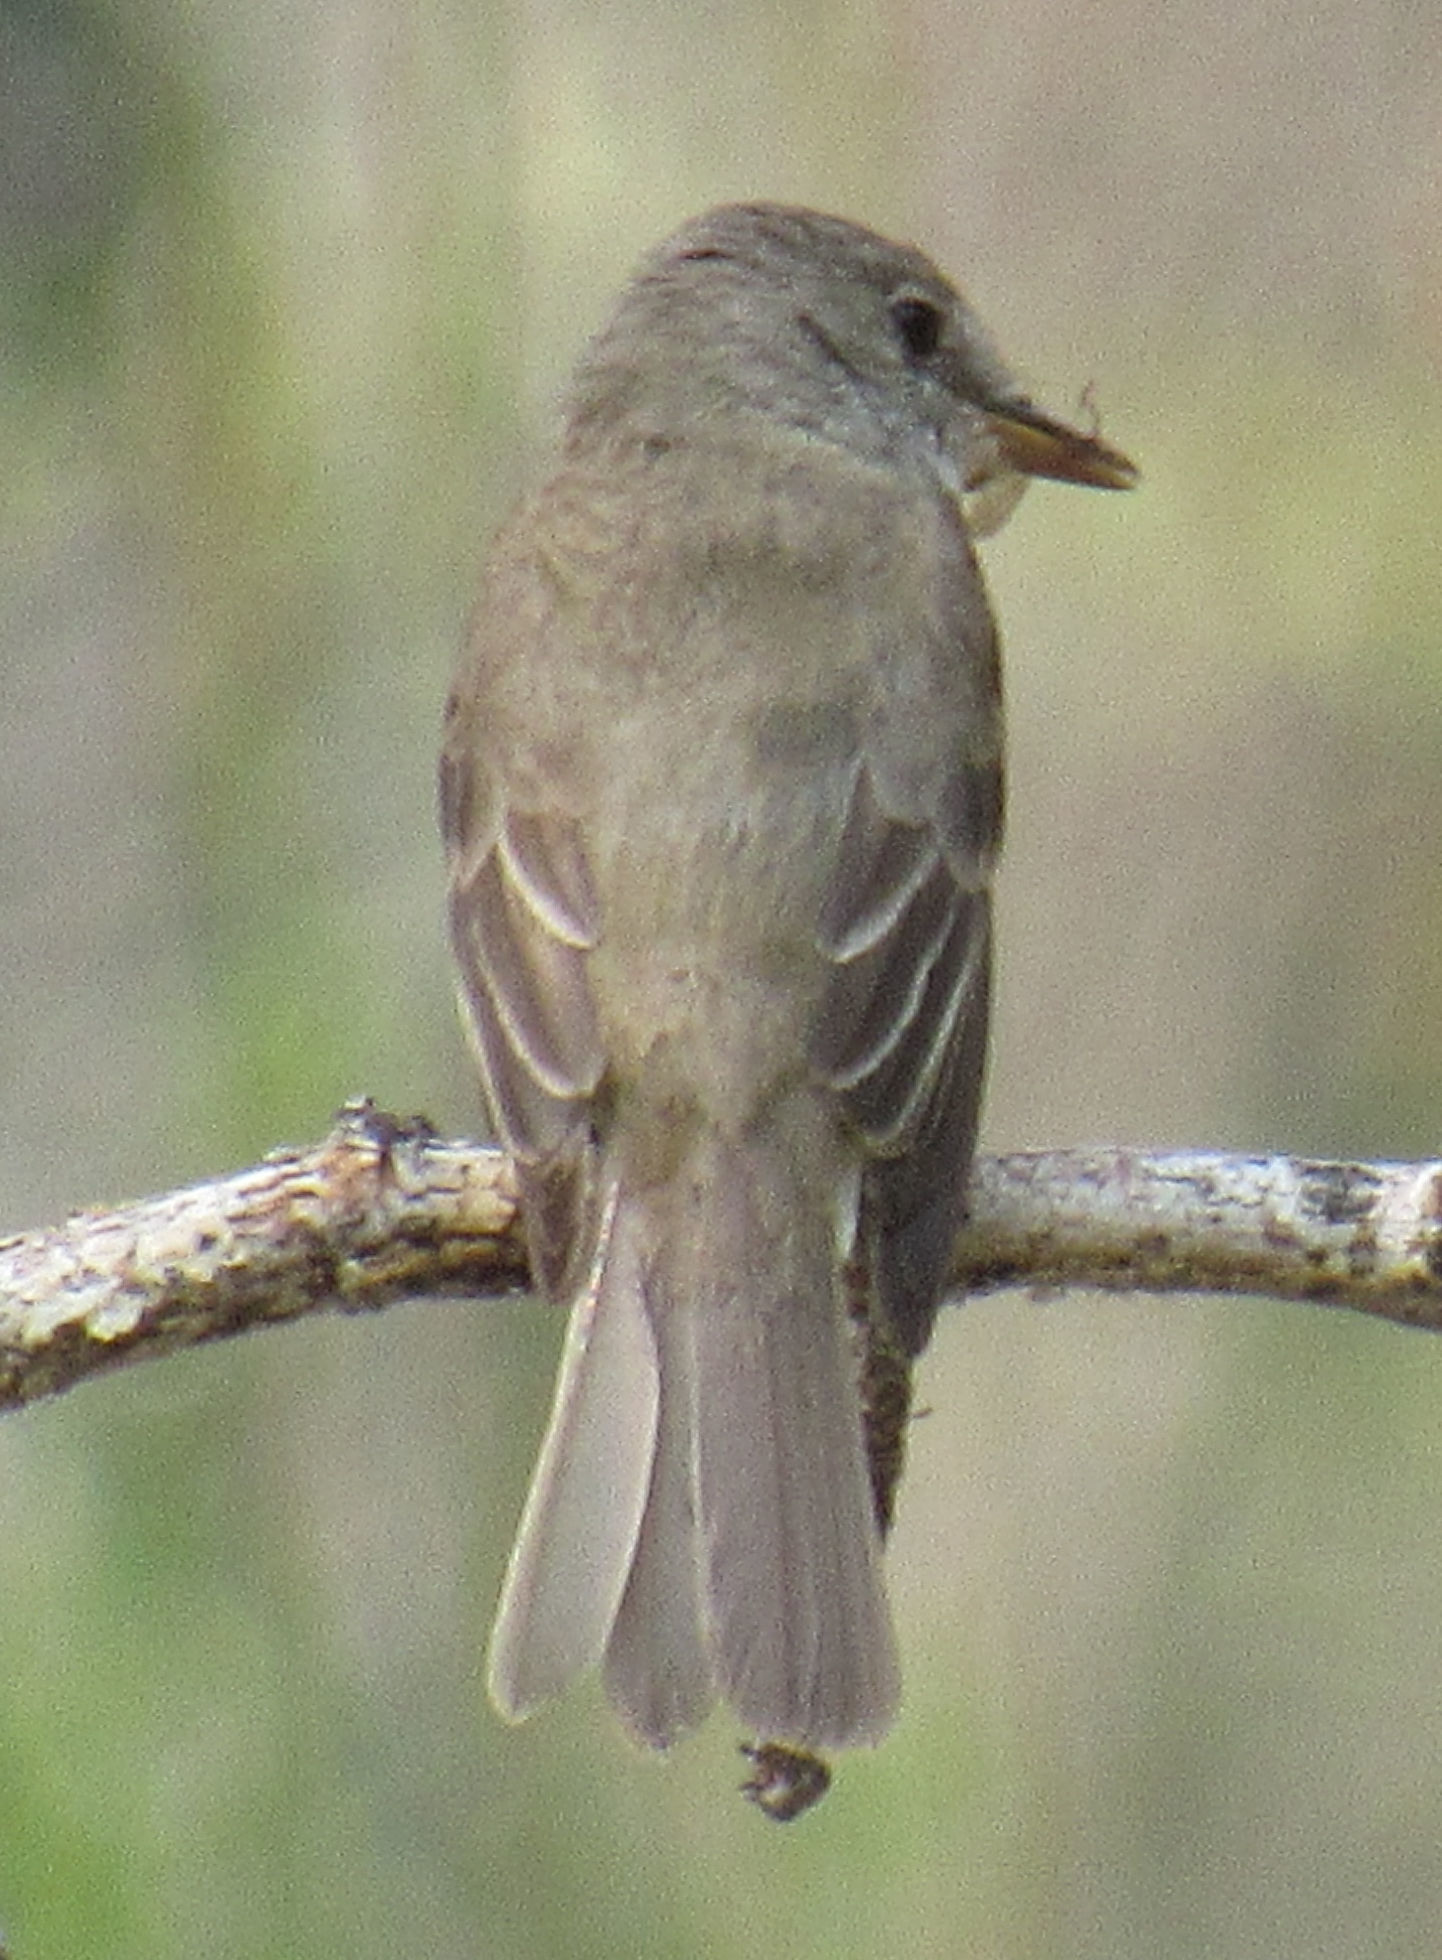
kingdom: Animalia
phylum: Chordata
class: Aves
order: Passeriformes
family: Tyrannidae
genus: Empidonax
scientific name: Empidonax minimus
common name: Least flycatcher
